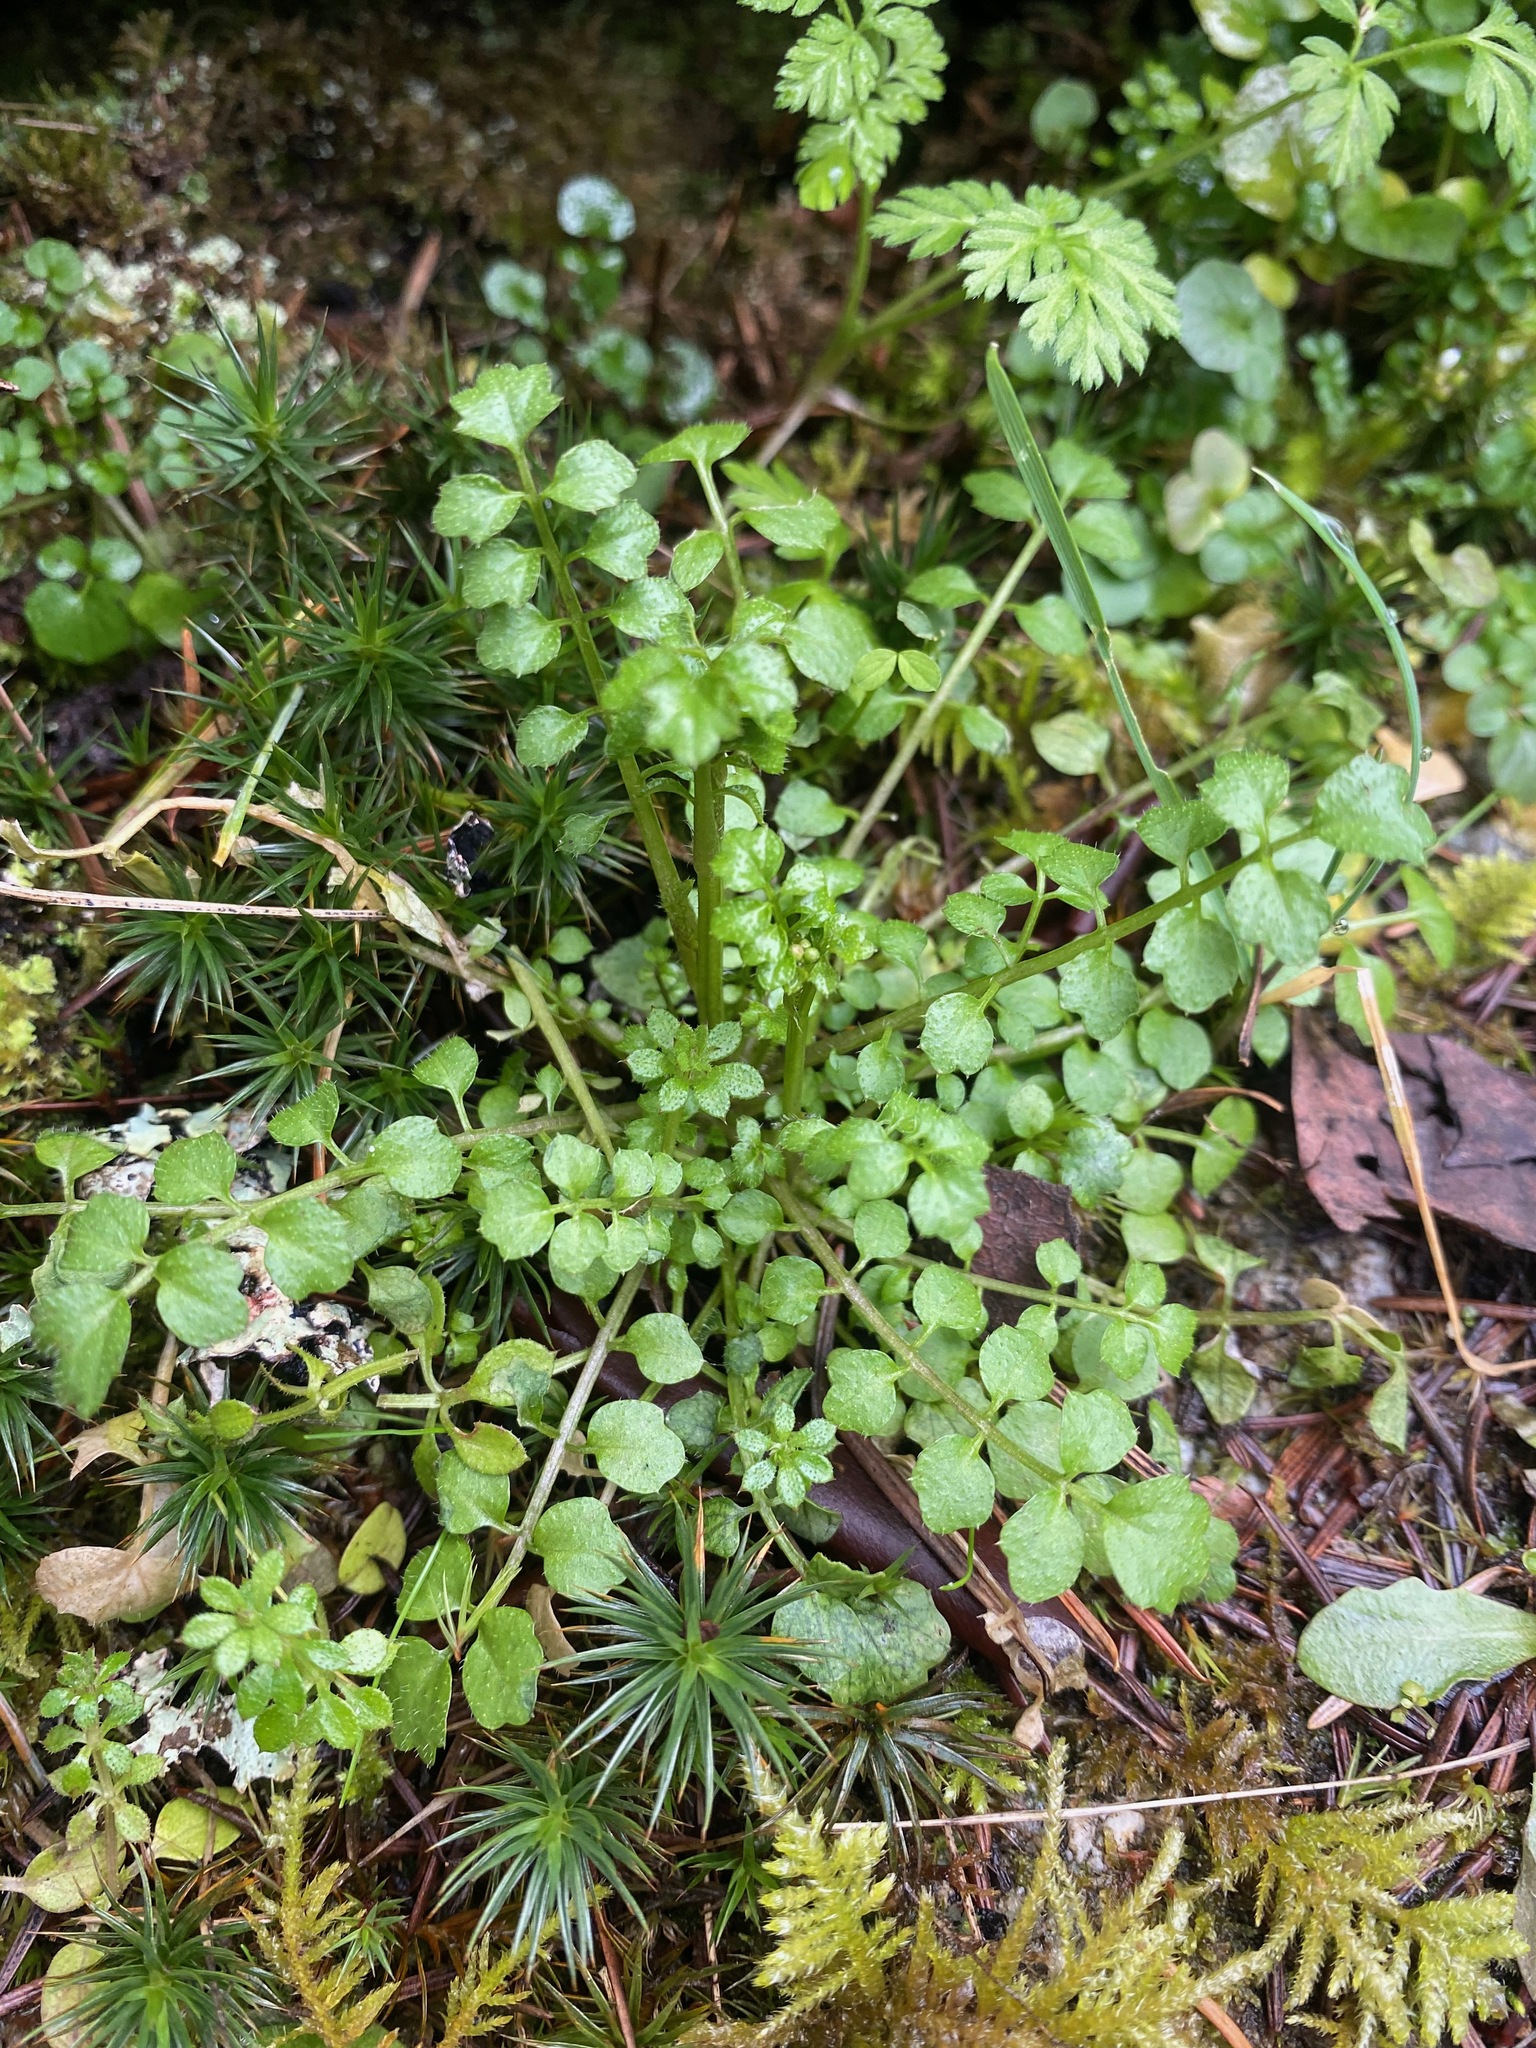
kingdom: Plantae
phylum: Tracheophyta
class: Magnoliopsida
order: Brassicales
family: Brassicaceae
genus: Cardamine
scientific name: Cardamine oligosperma
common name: Idaho bittercress
